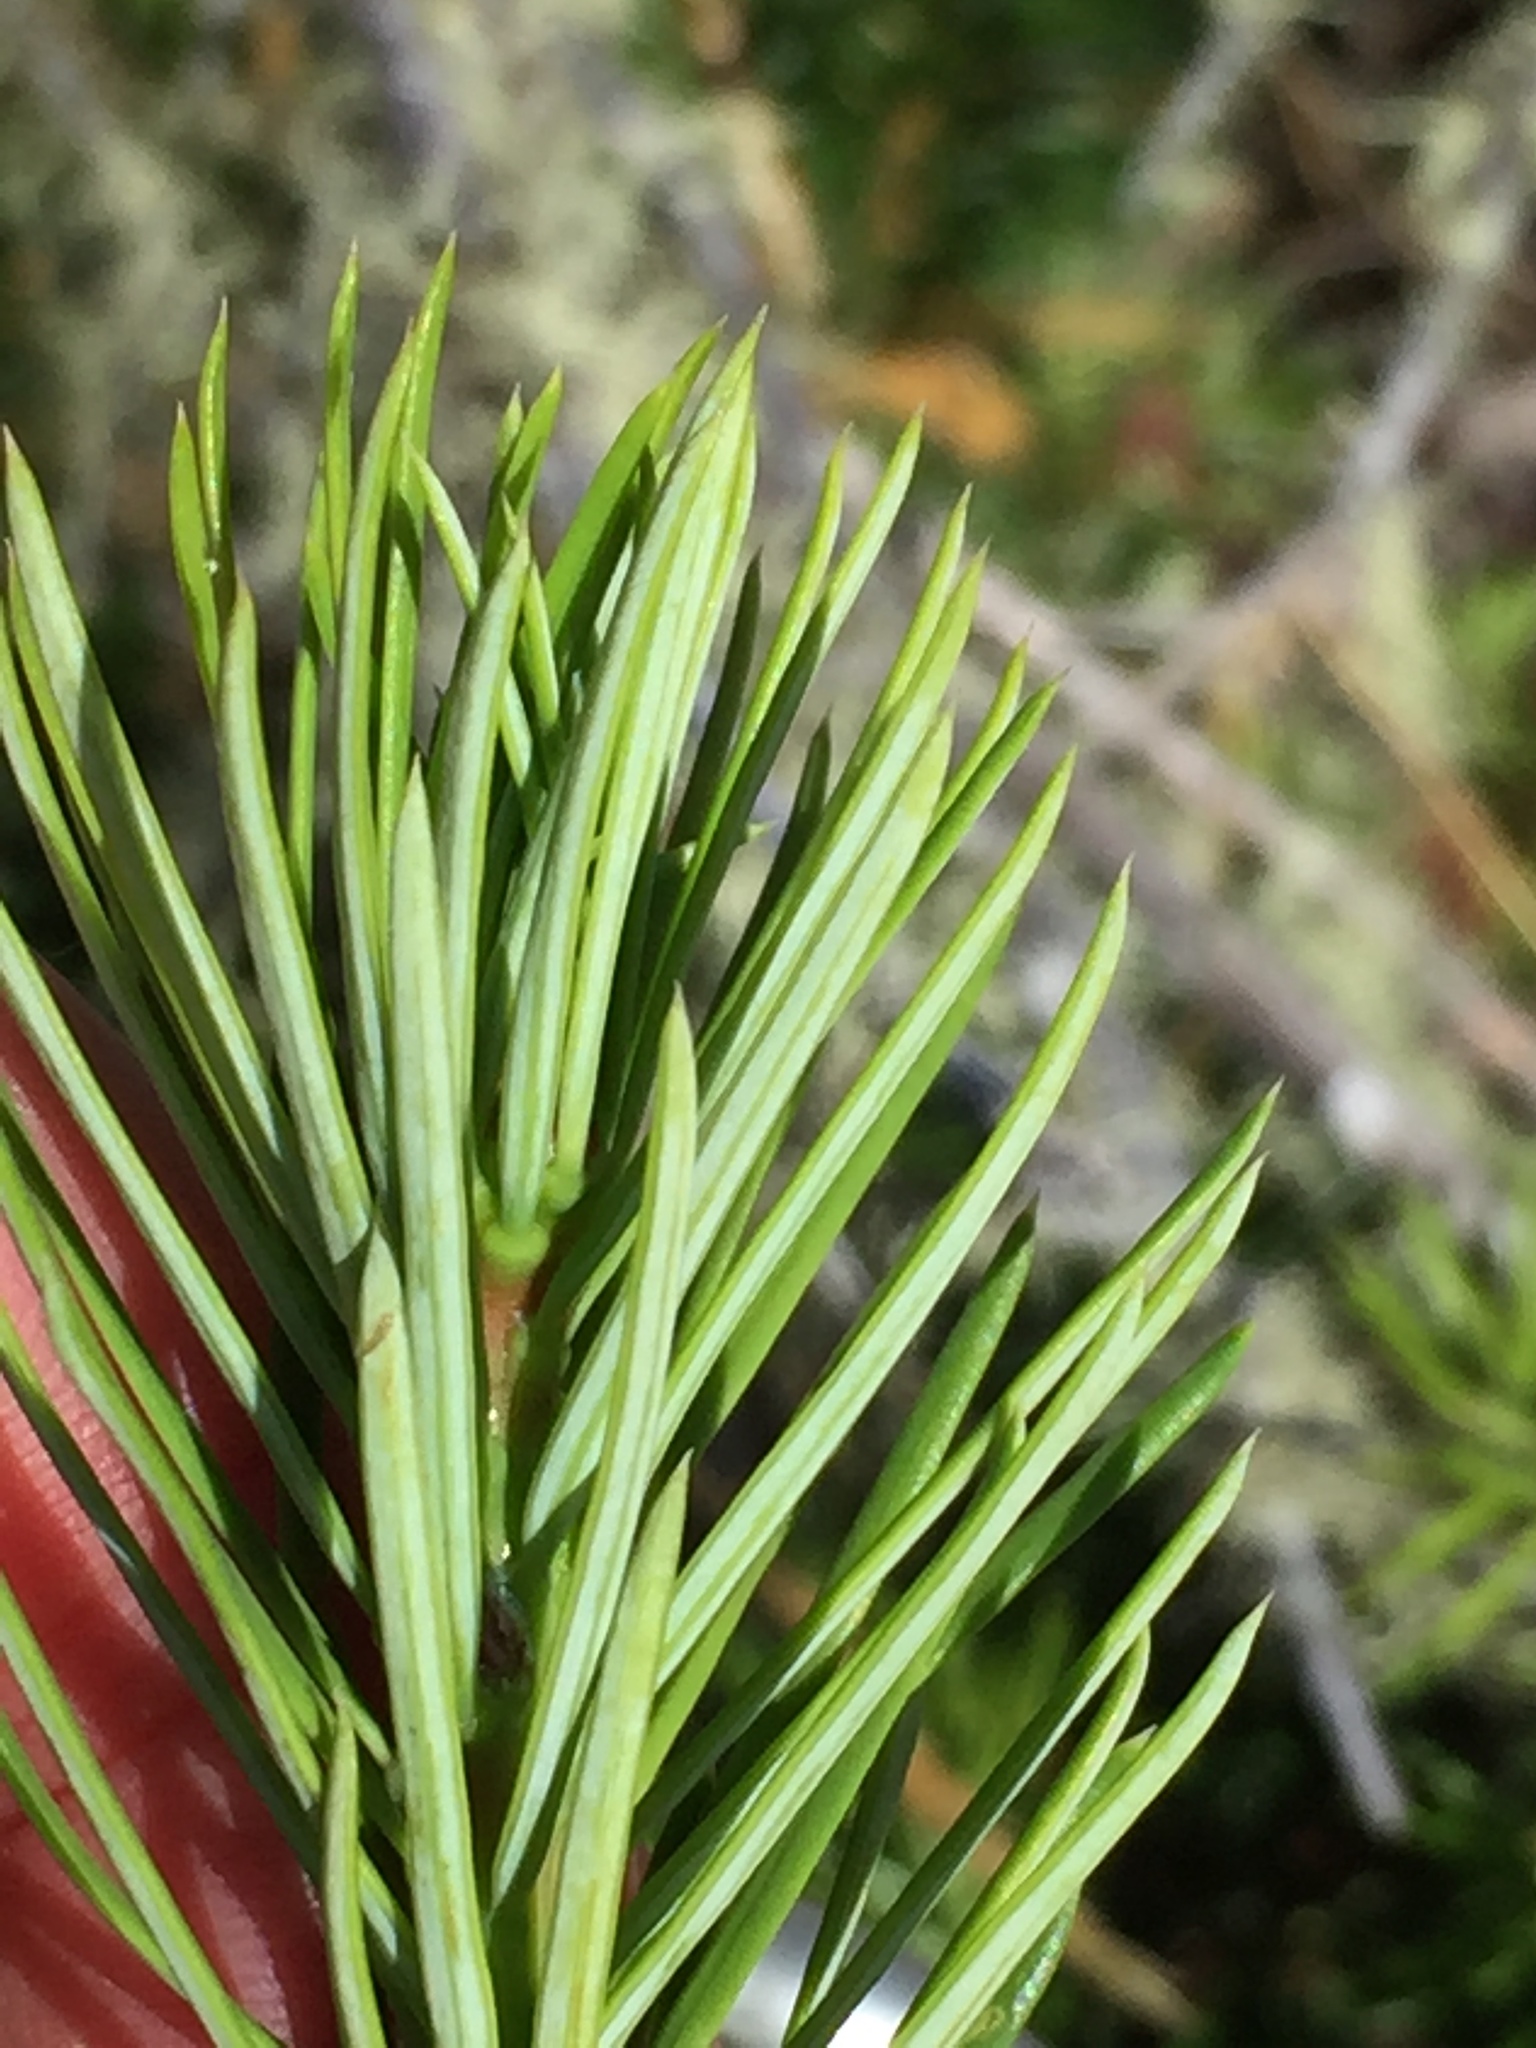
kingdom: Plantae
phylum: Tracheophyta
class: Pinopsida
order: Pinales
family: Pinaceae
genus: Pseudotsuga
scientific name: Pseudotsuga menziesii
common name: Douglas fir
